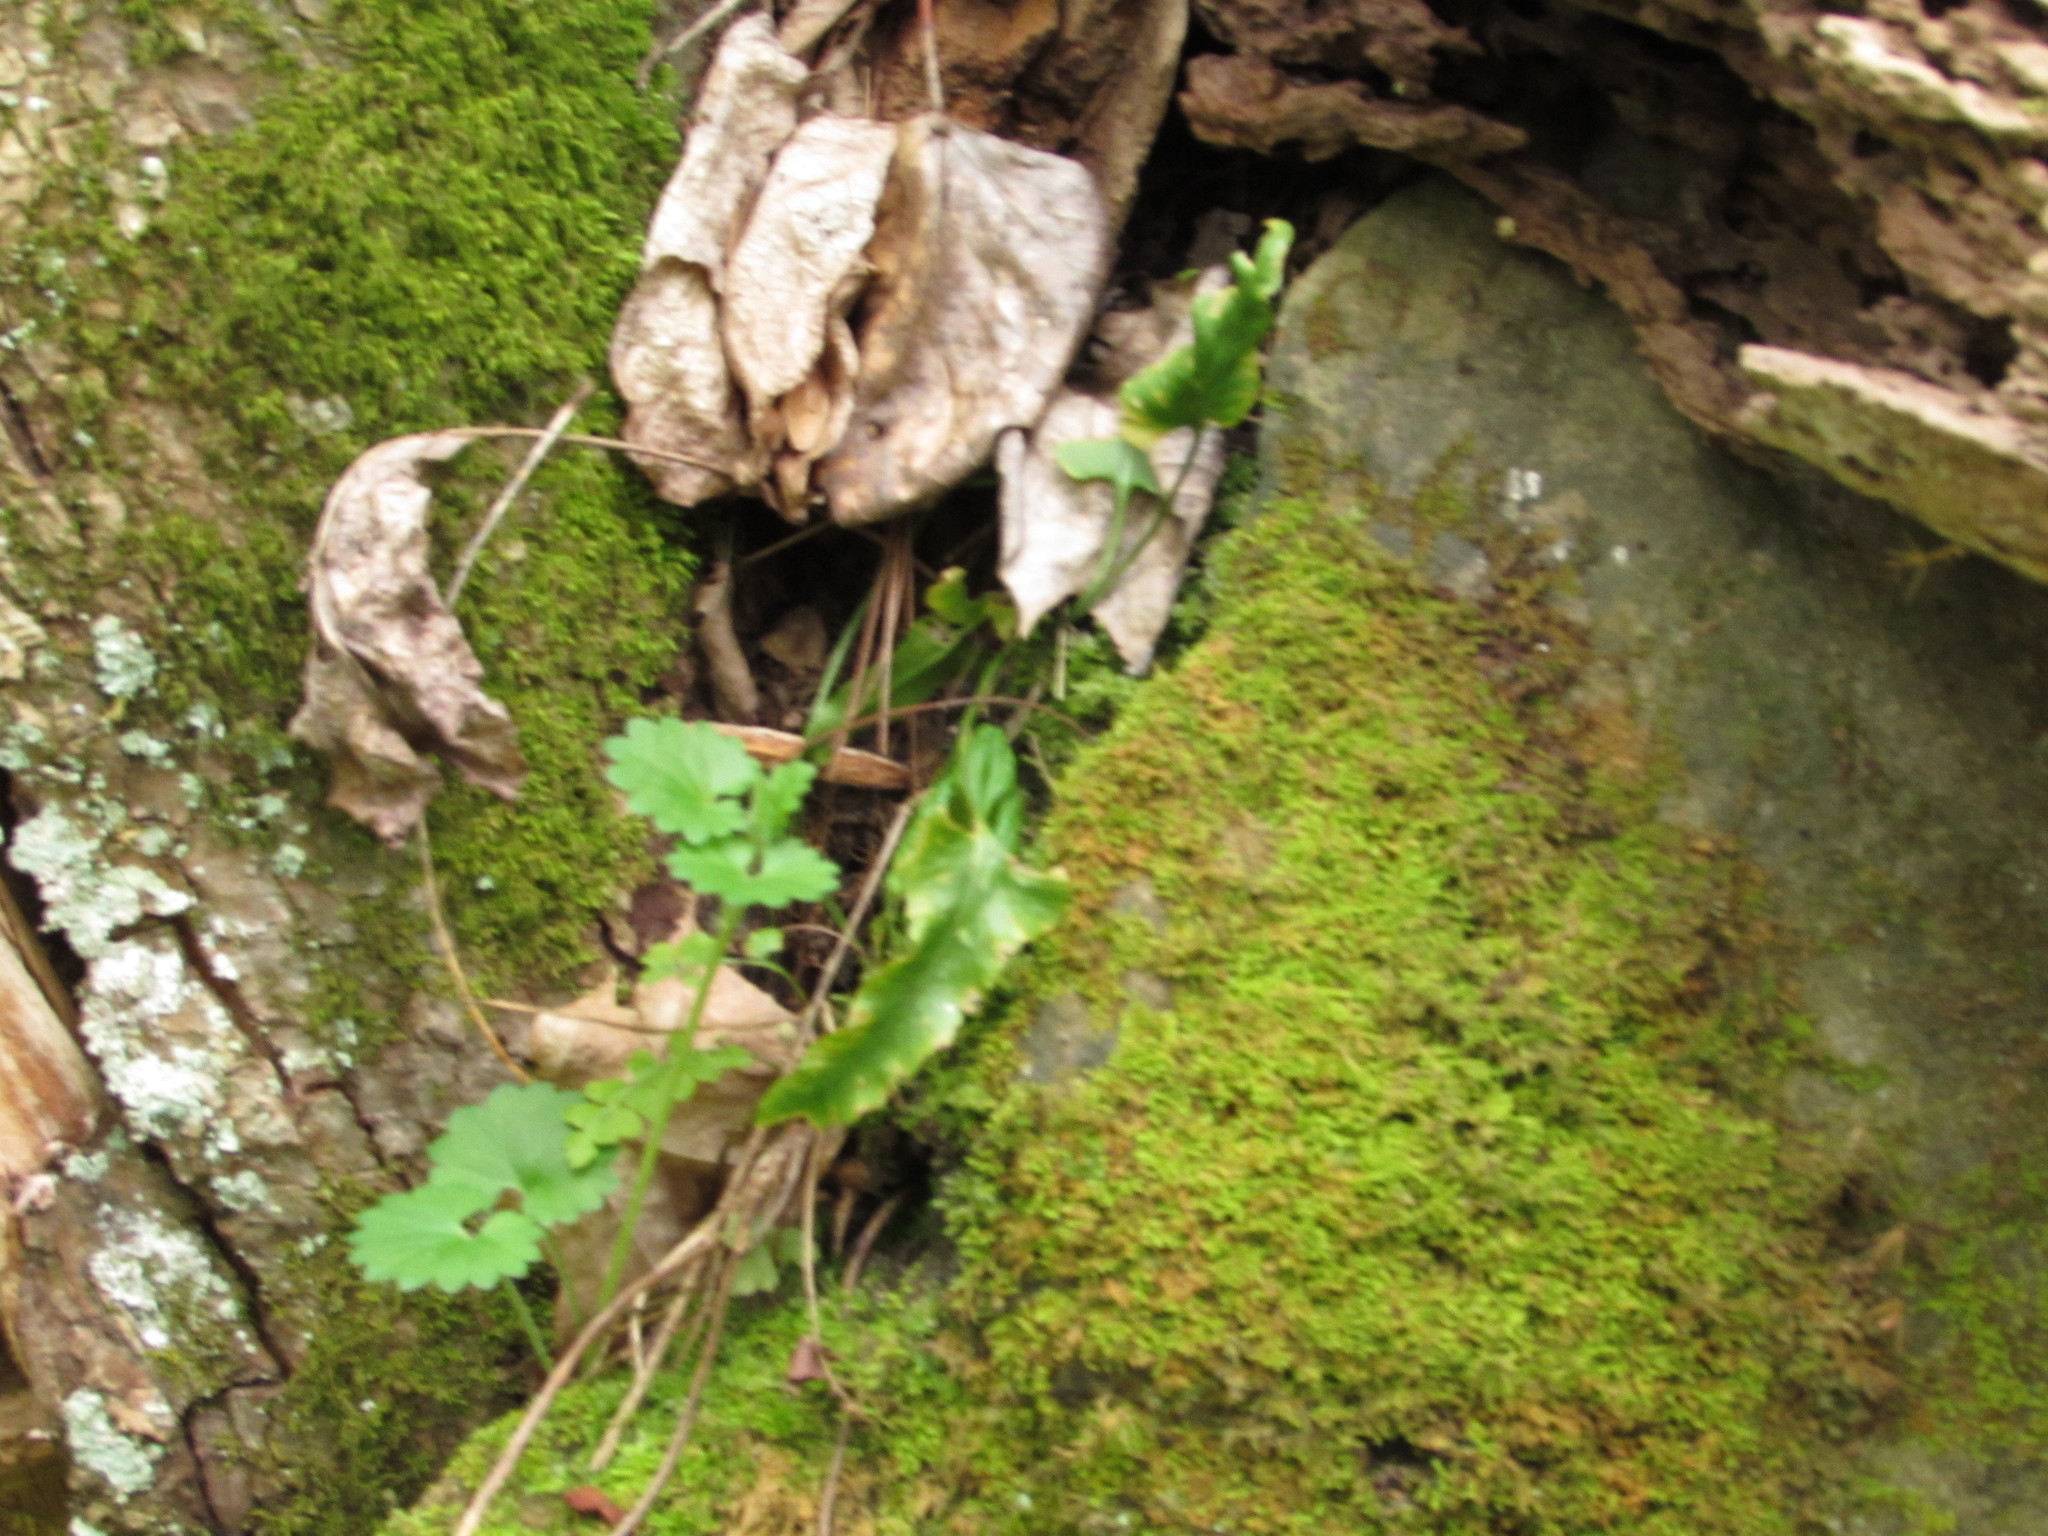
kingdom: Plantae
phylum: Tracheophyta
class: Polypodiopsida
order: Polypodiales
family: Aspleniaceae
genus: Asplenium
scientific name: Asplenium rhizophyllum
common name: Walking fern
